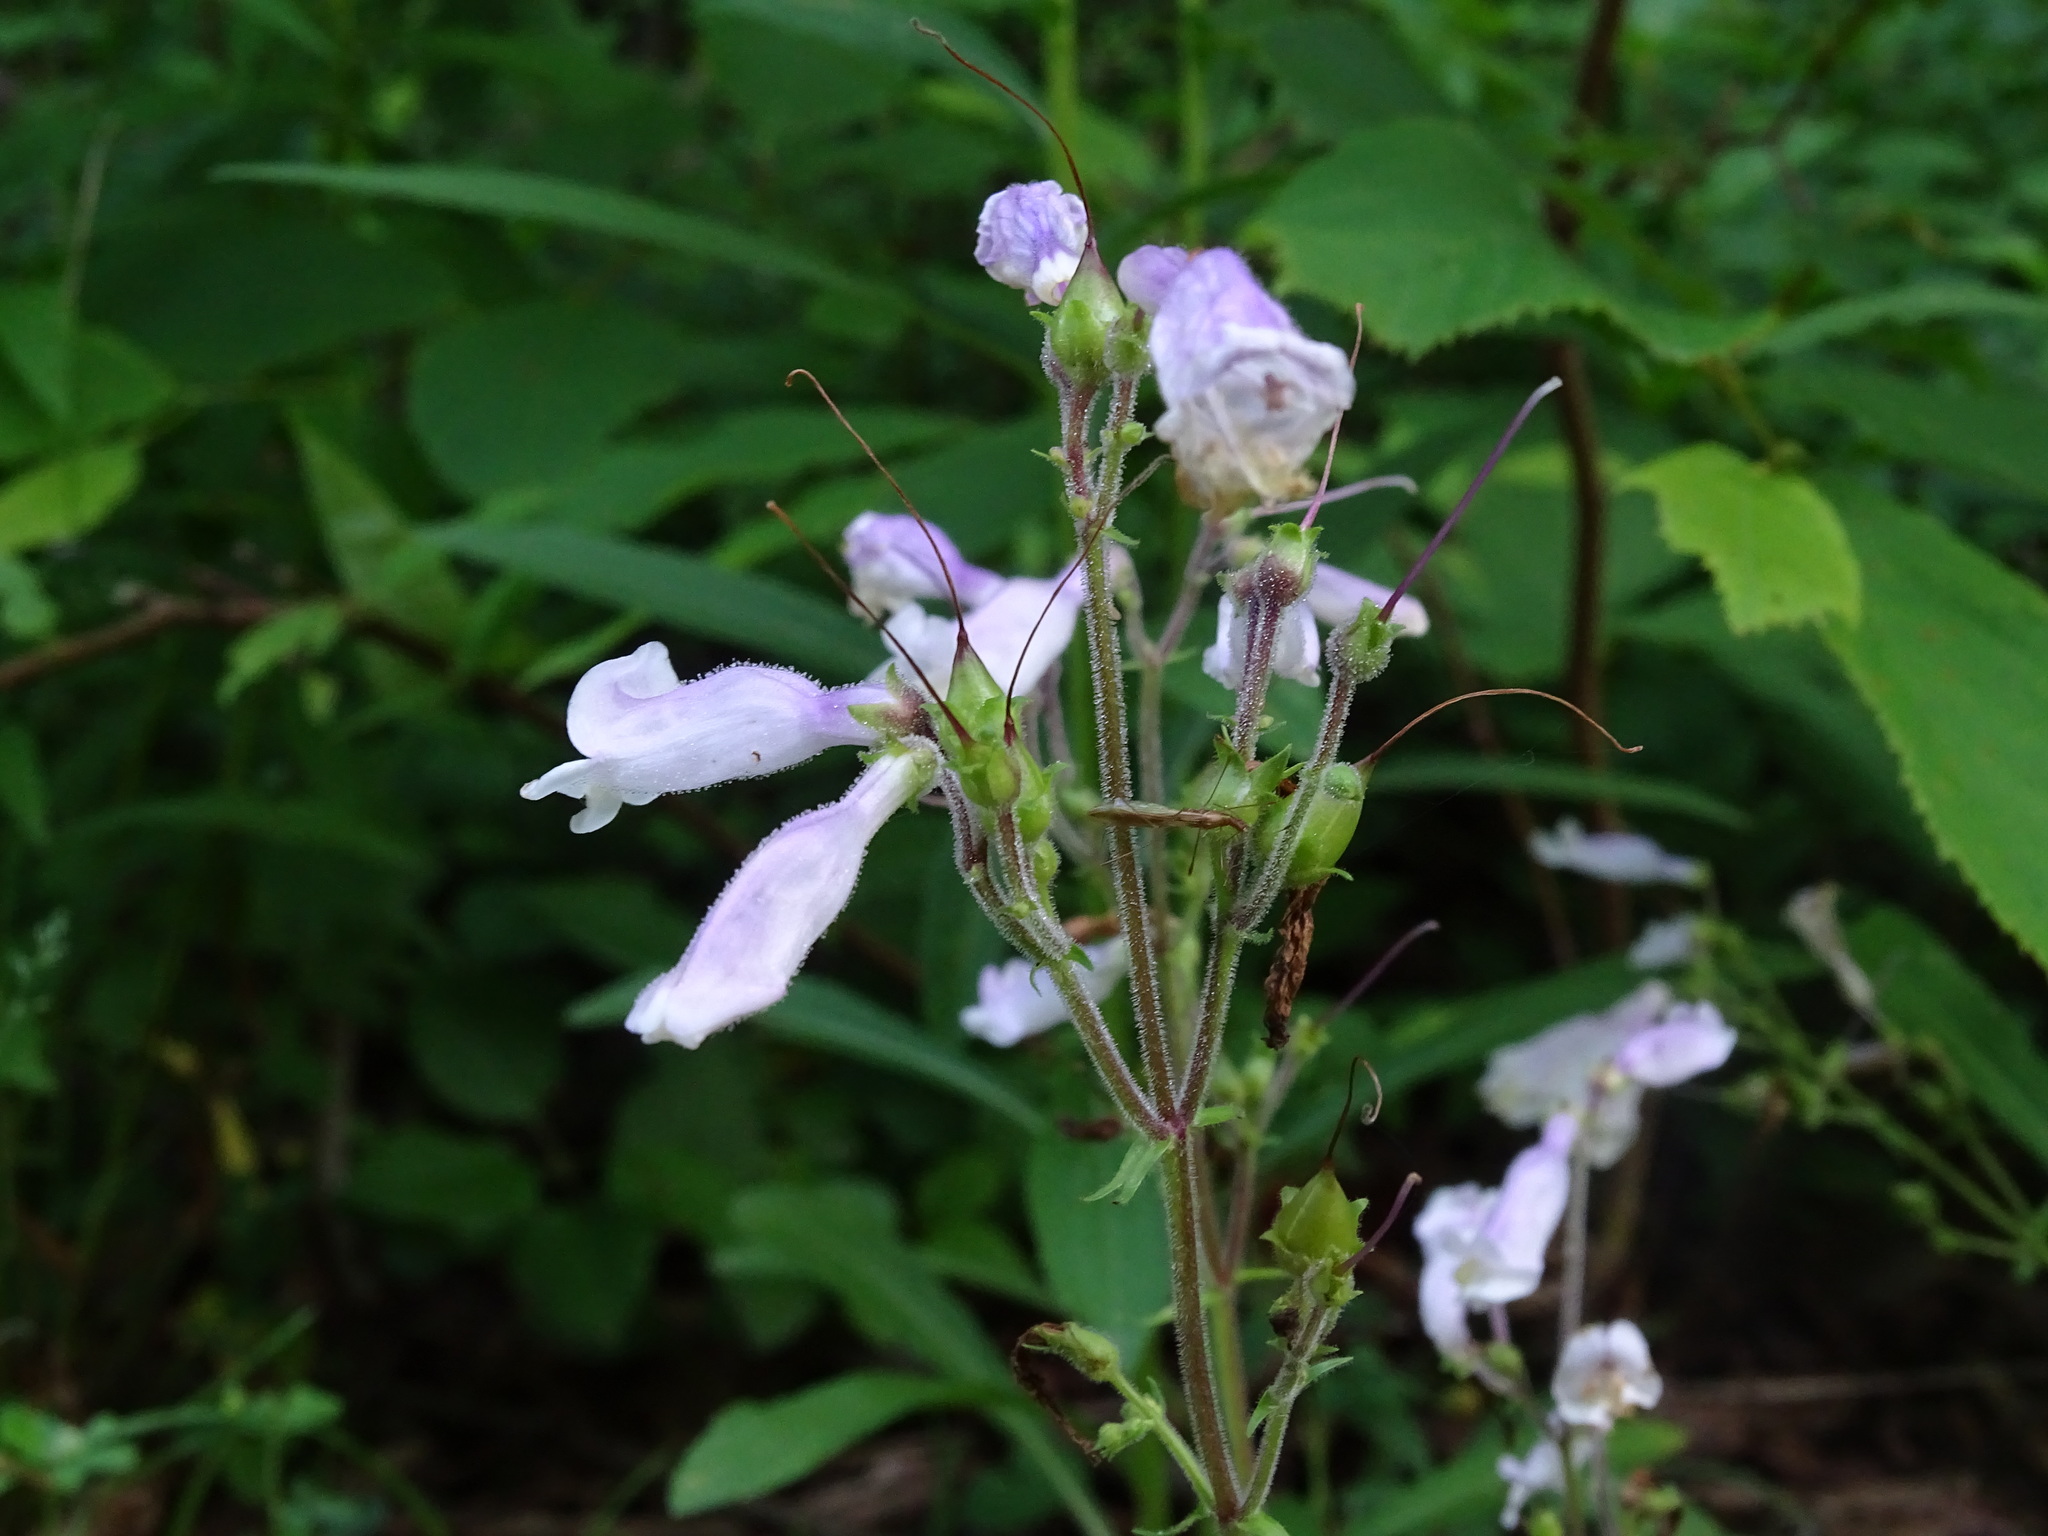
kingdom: Plantae
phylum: Tracheophyta
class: Magnoliopsida
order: Lamiales
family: Plantaginaceae
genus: Penstemon
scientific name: Penstemon hirsutus
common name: Hairy beardtongue
